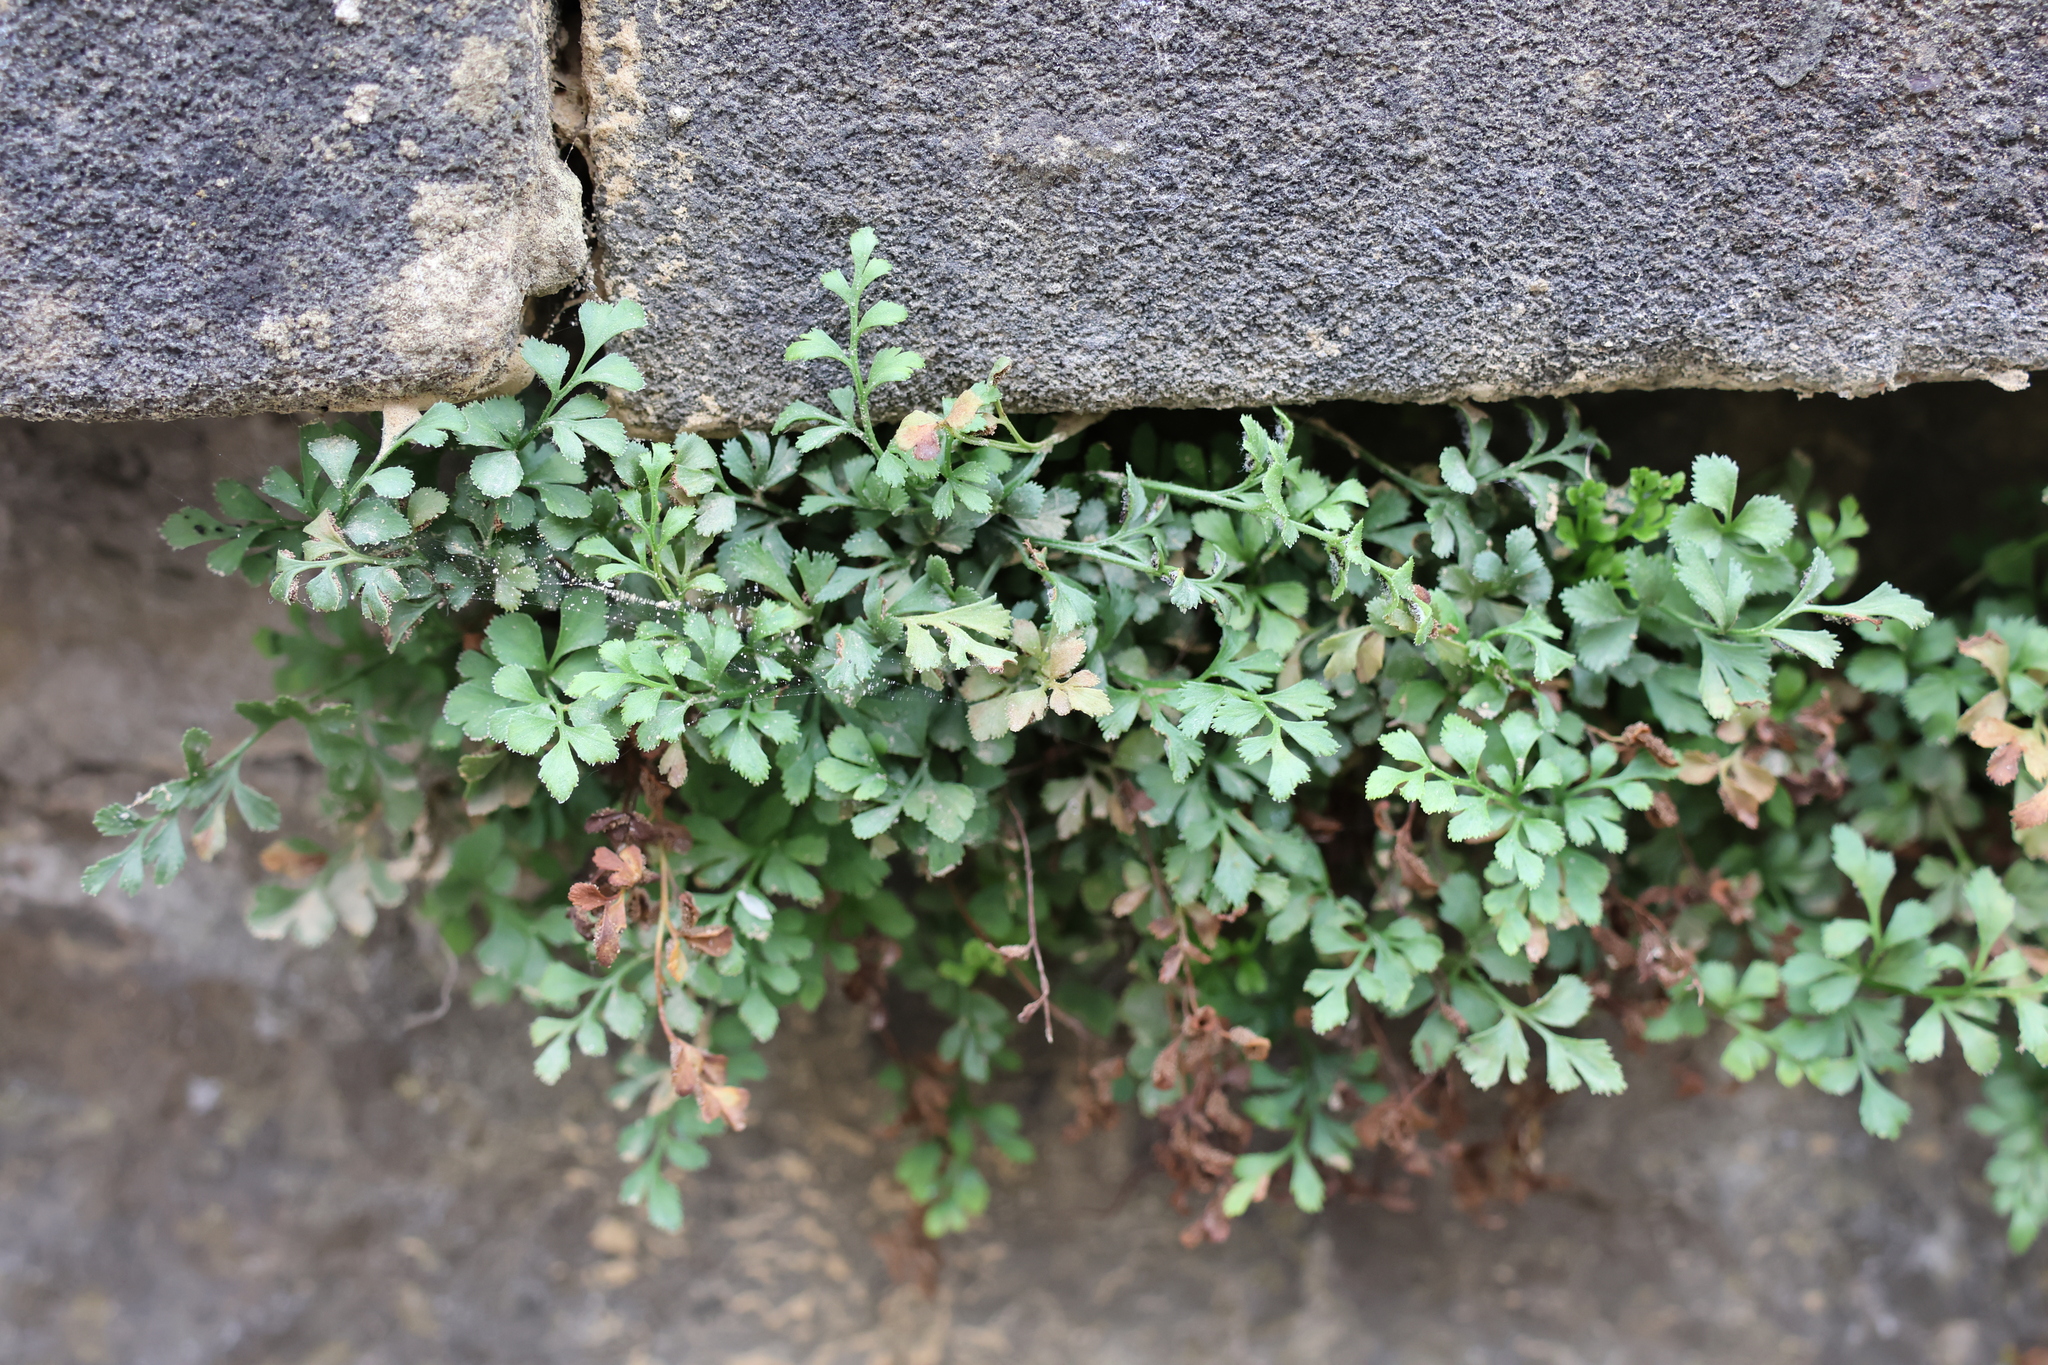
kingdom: Plantae
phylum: Tracheophyta
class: Polypodiopsida
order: Polypodiales
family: Aspleniaceae
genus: Asplenium
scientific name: Asplenium ruta-muraria
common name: Wall-rue
